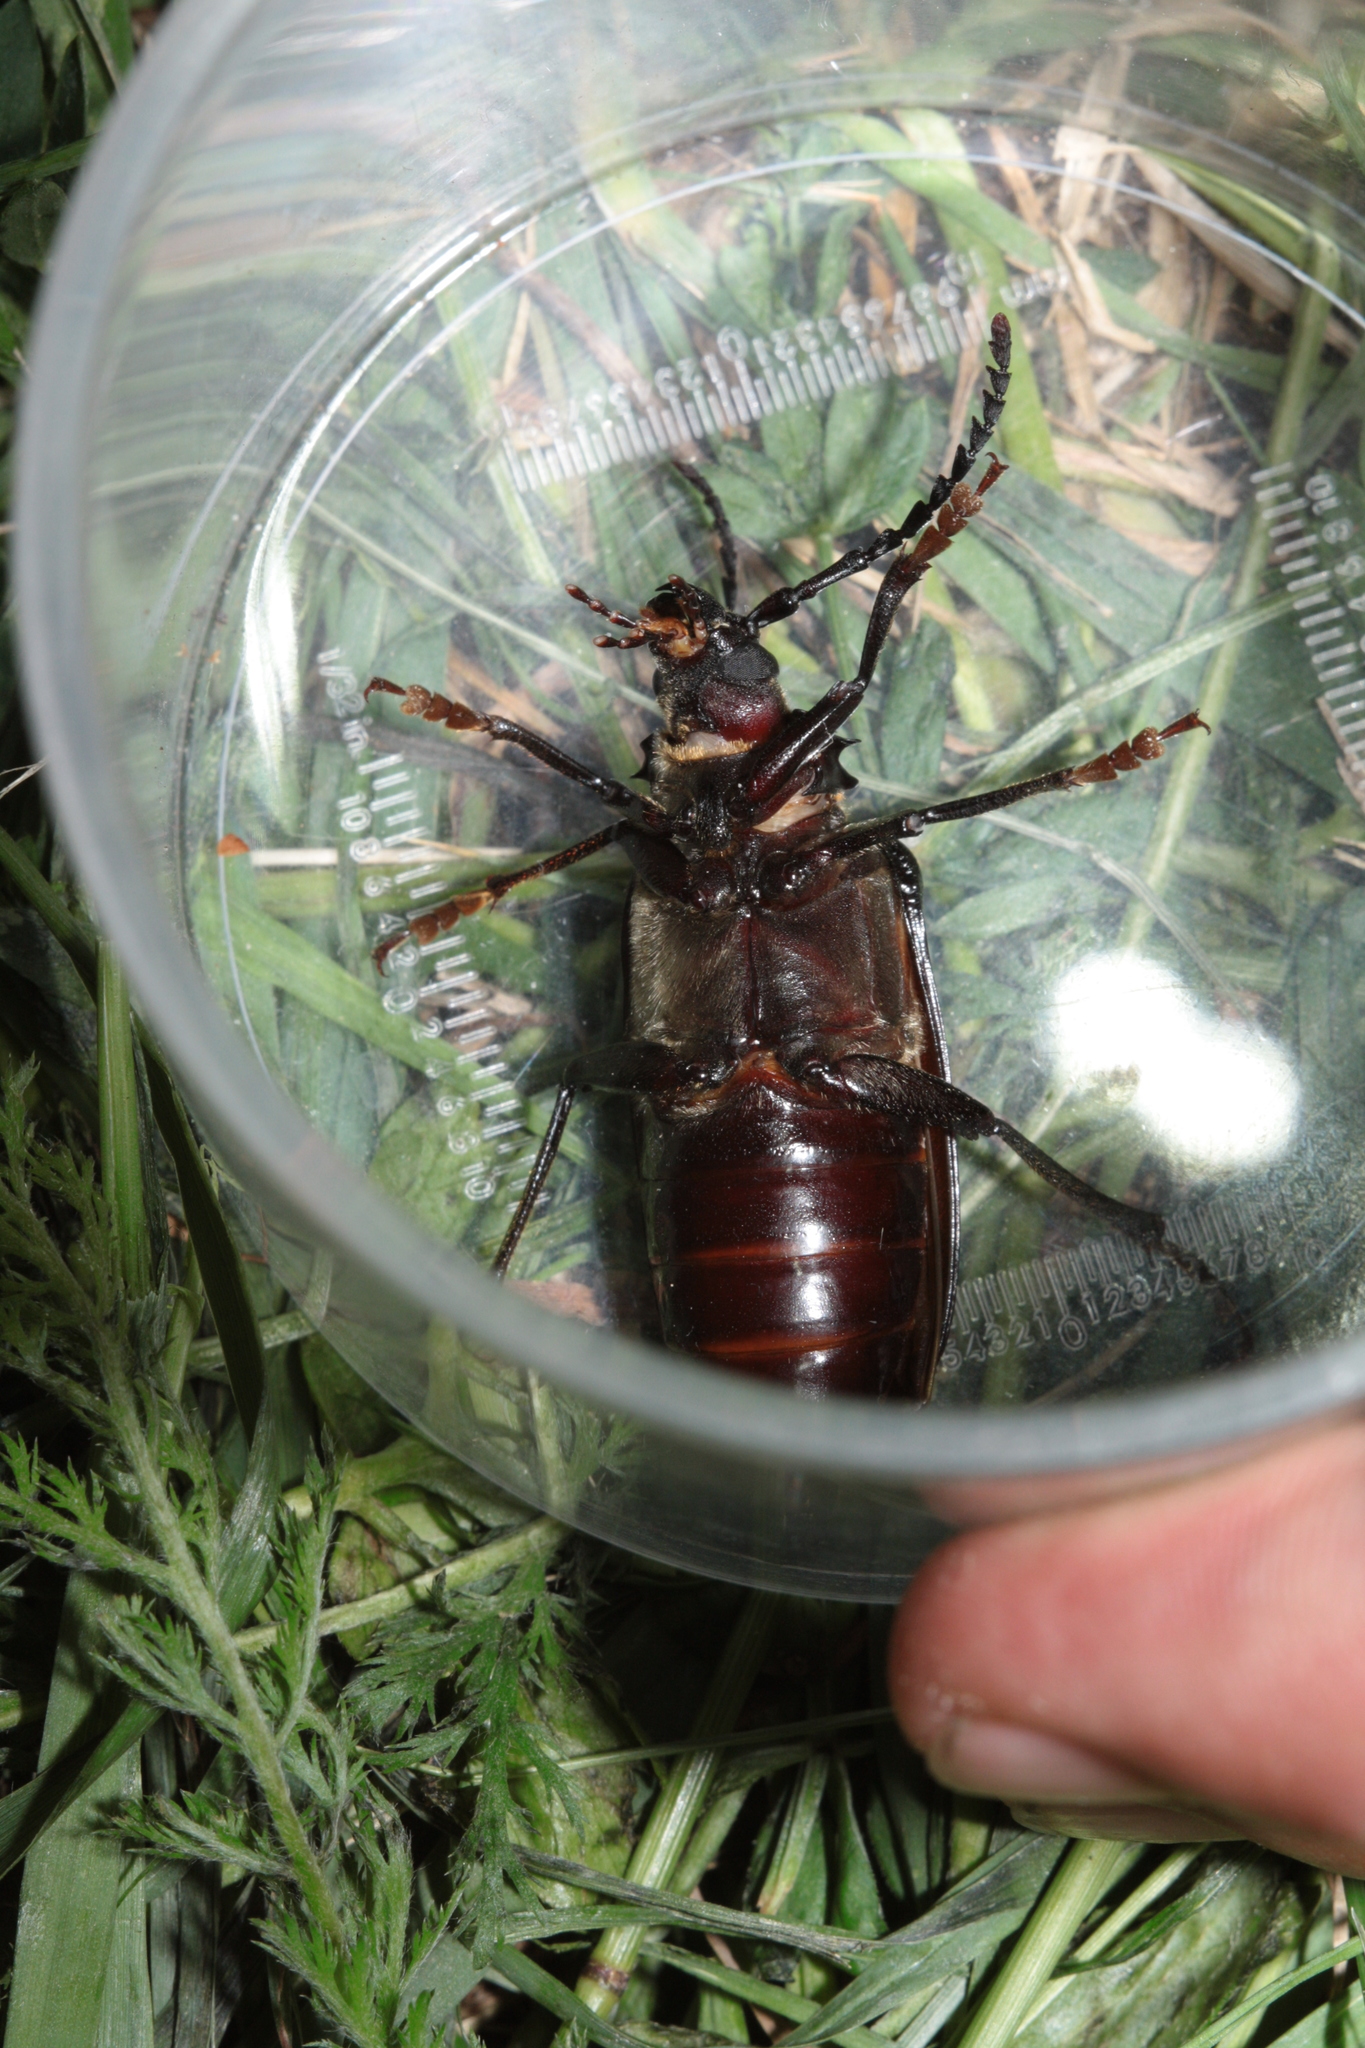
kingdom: Animalia
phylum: Arthropoda
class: Insecta
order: Coleoptera
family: Cerambycidae
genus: Prionus
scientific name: Prionus coriarius
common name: Tanner beetle
